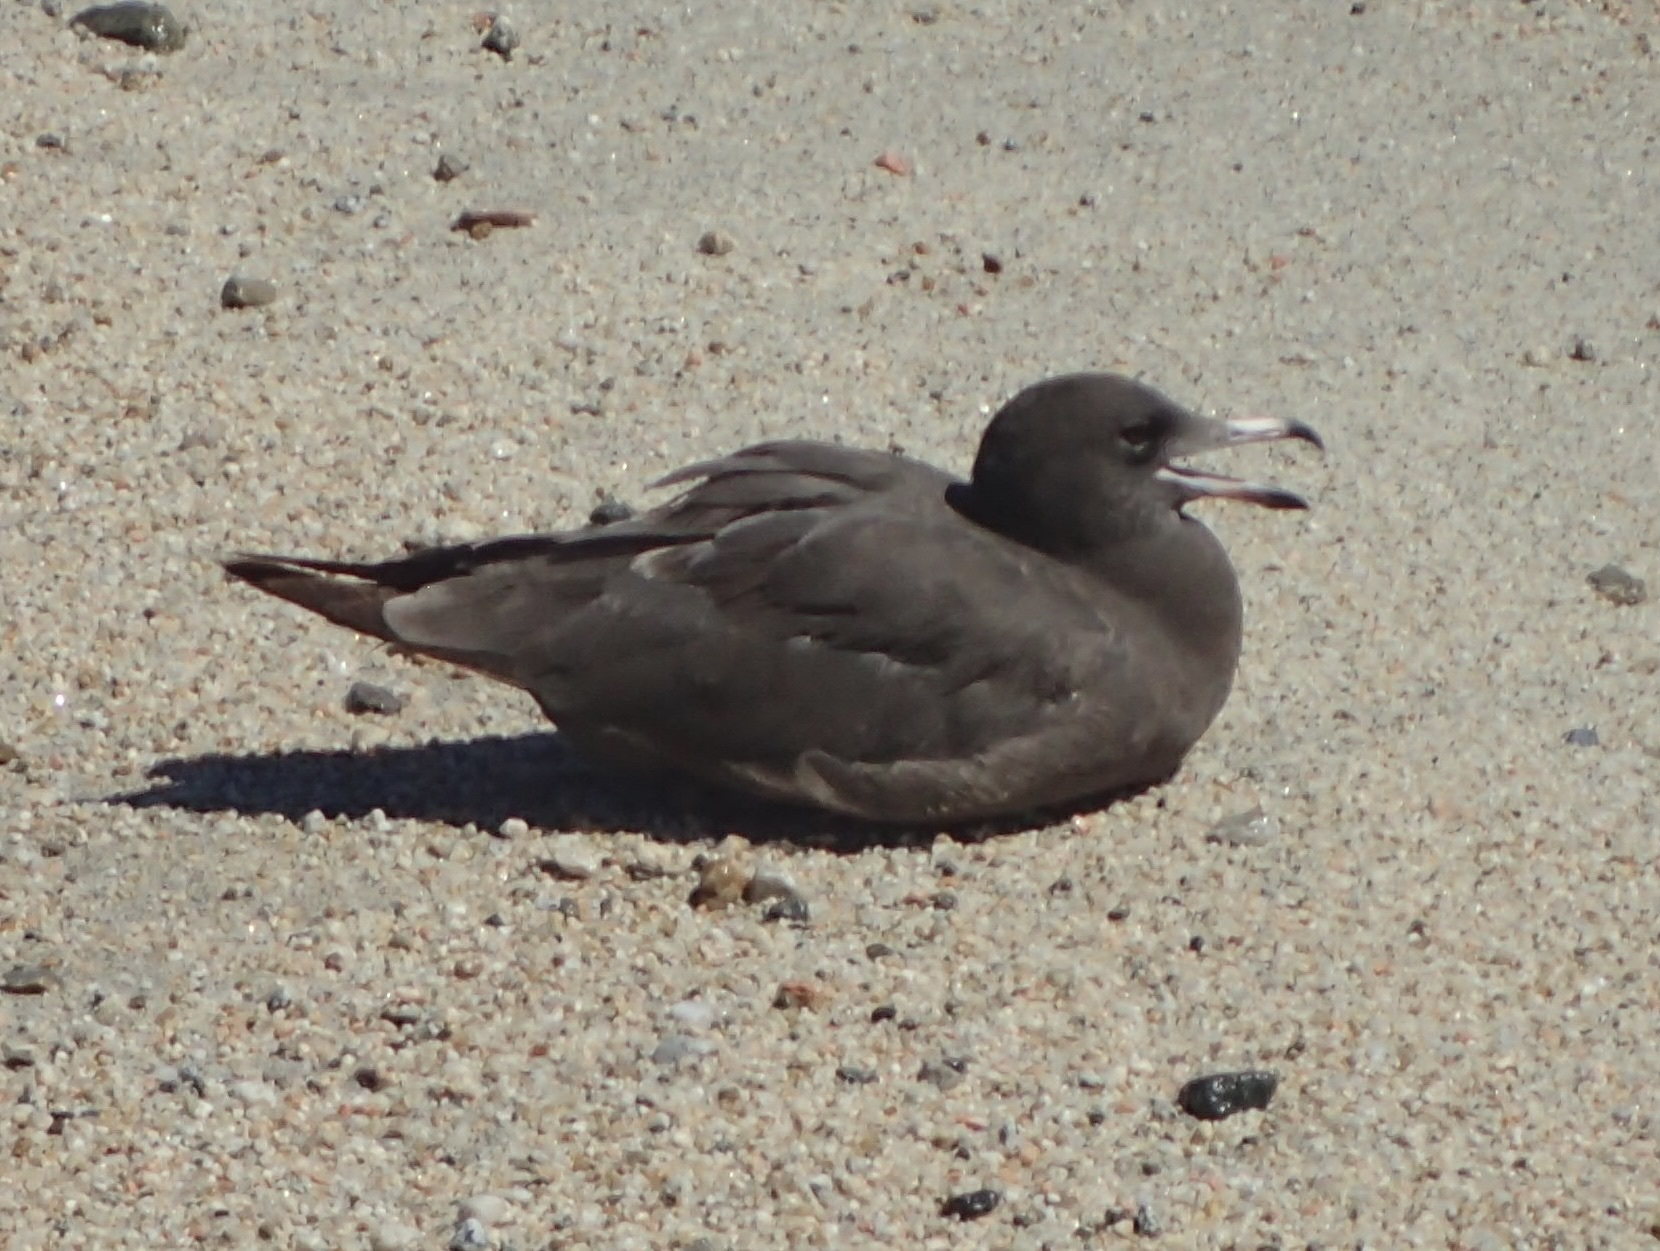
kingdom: Animalia
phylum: Chordata
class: Aves
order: Charadriiformes
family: Laridae
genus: Larus
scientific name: Larus heermanni
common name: Heermann's gull
